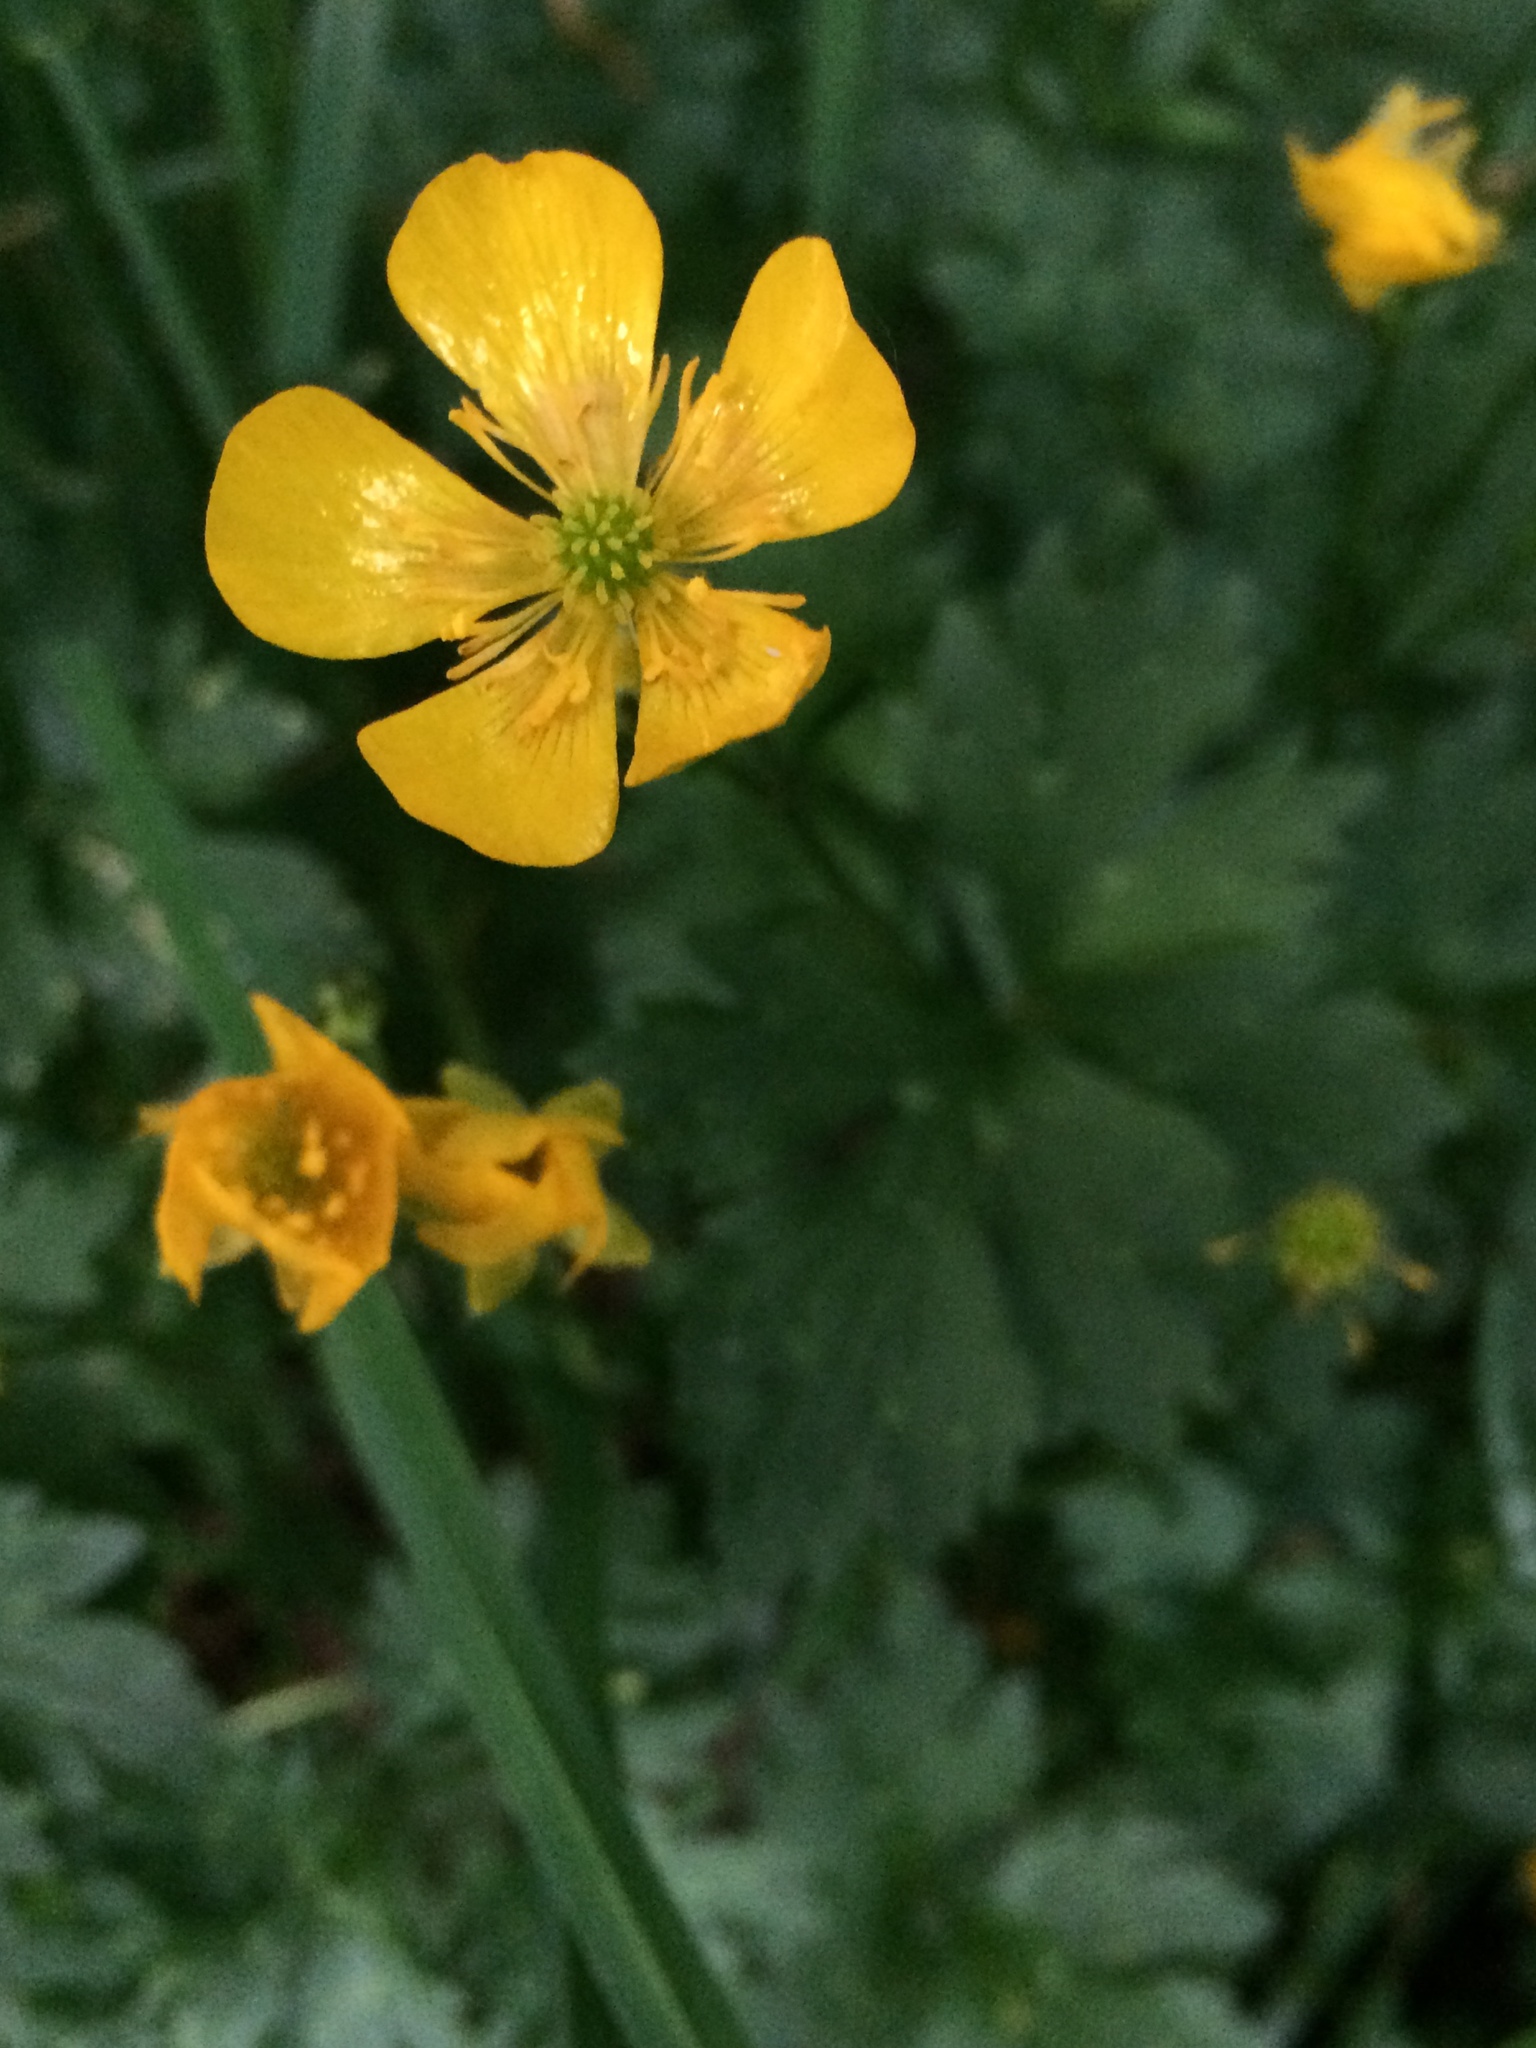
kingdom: Plantae
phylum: Tracheophyta
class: Magnoliopsida
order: Ranunculales
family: Ranunculaceae
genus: Ranunculus
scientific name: Ranunculus repens
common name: Creeping buttercup
